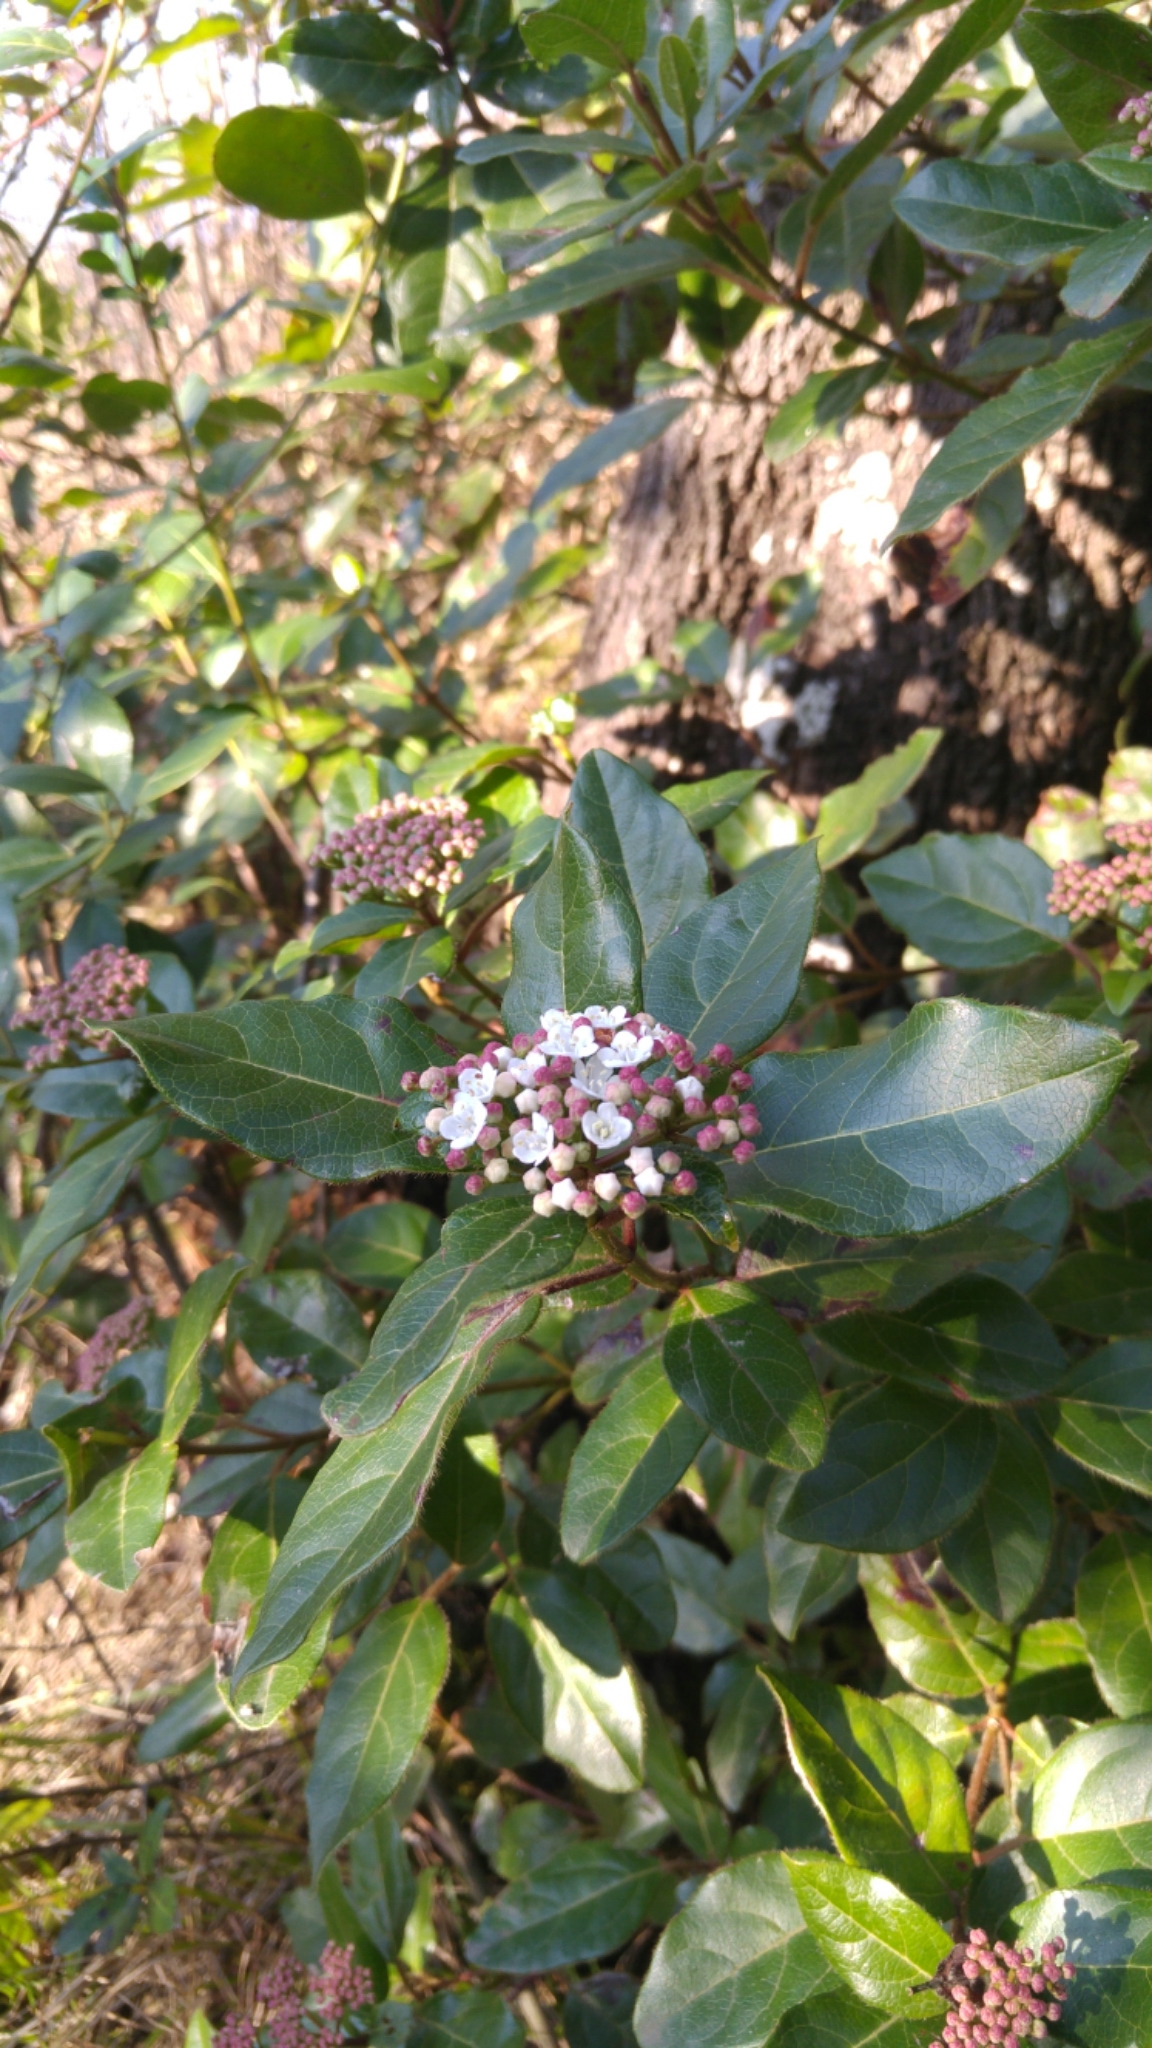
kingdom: Plantae
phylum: Tracheophyta
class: Magnoliopsida
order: Dipsacales
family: Viburnaceae
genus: Viburnum
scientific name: Viburnum tinus
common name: Laurustinus
